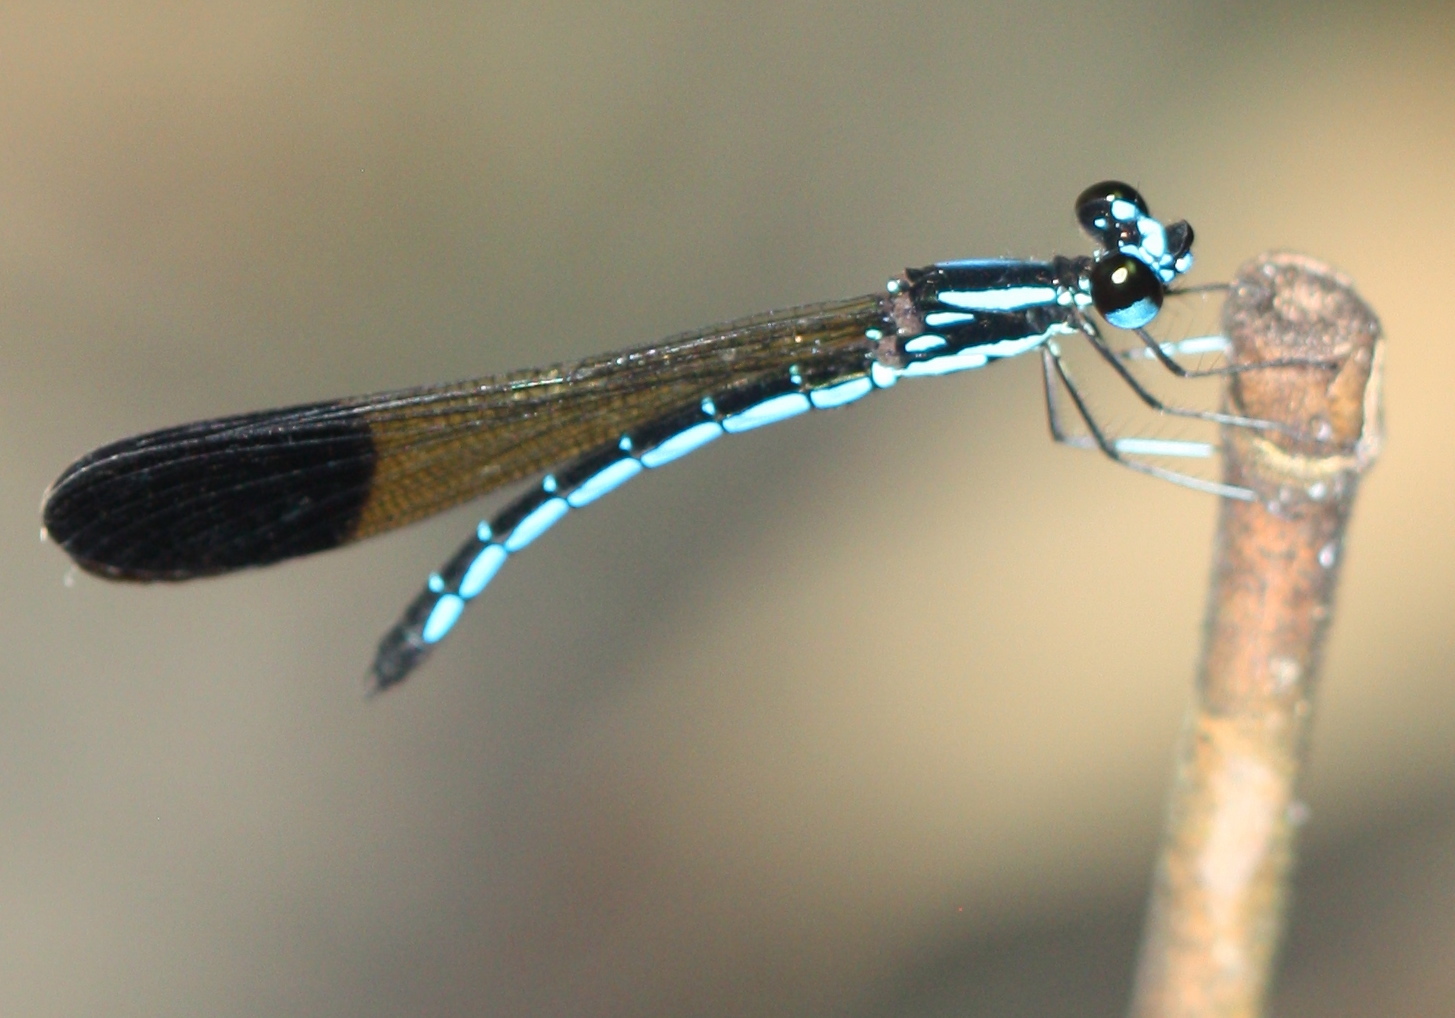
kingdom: Animalia
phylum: Arthropoda
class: Insecta
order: Odonata
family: Chlorocyphidae
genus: Rhinocypha
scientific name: Rhinocypha humeralis
